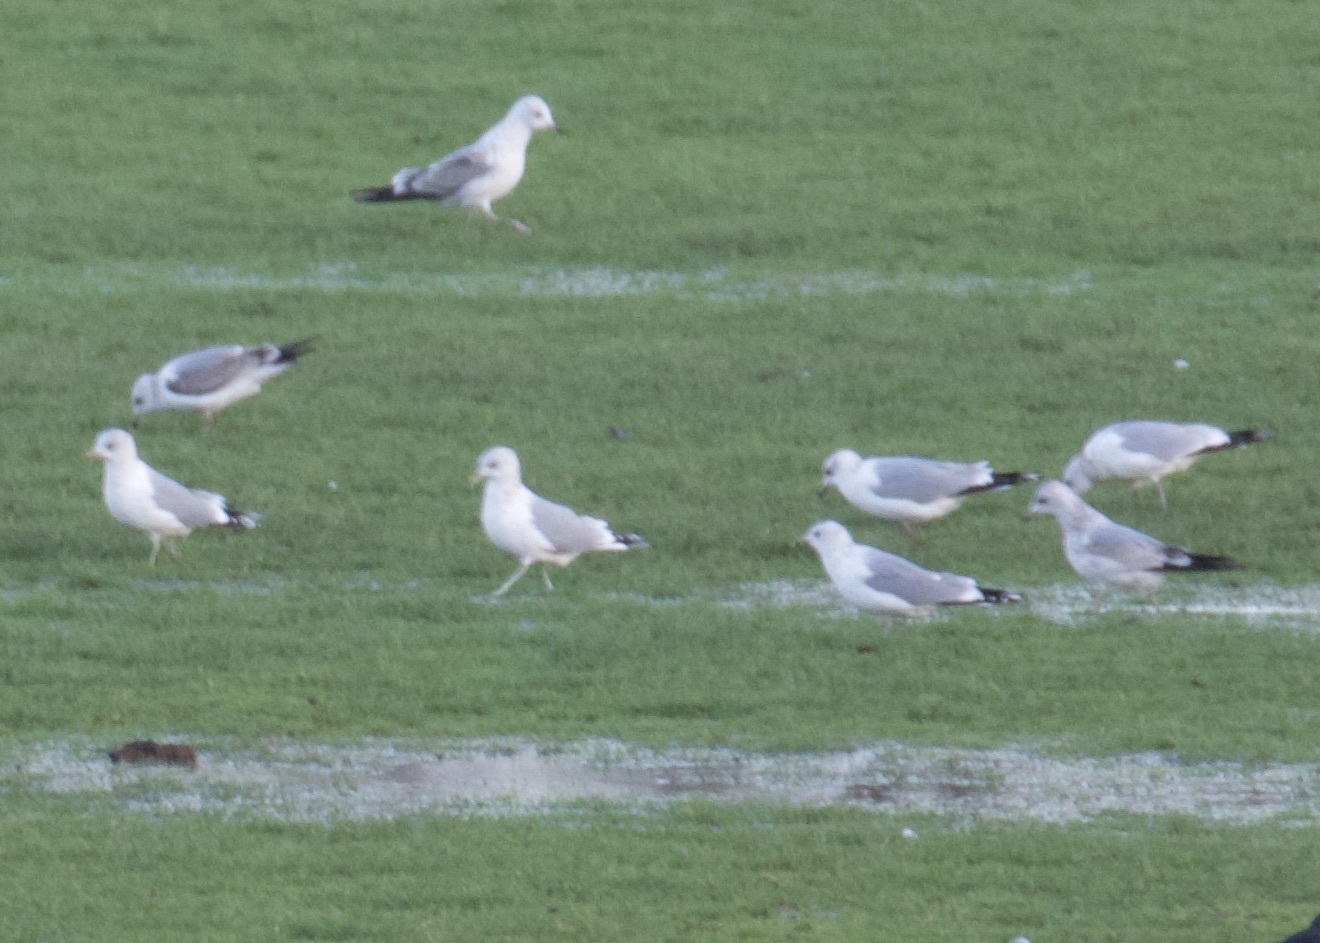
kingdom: Animalia
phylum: Chordata
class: Aves
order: Charadriiformes
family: Laridae
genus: Larus
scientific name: Larus canus
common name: Mew gull
